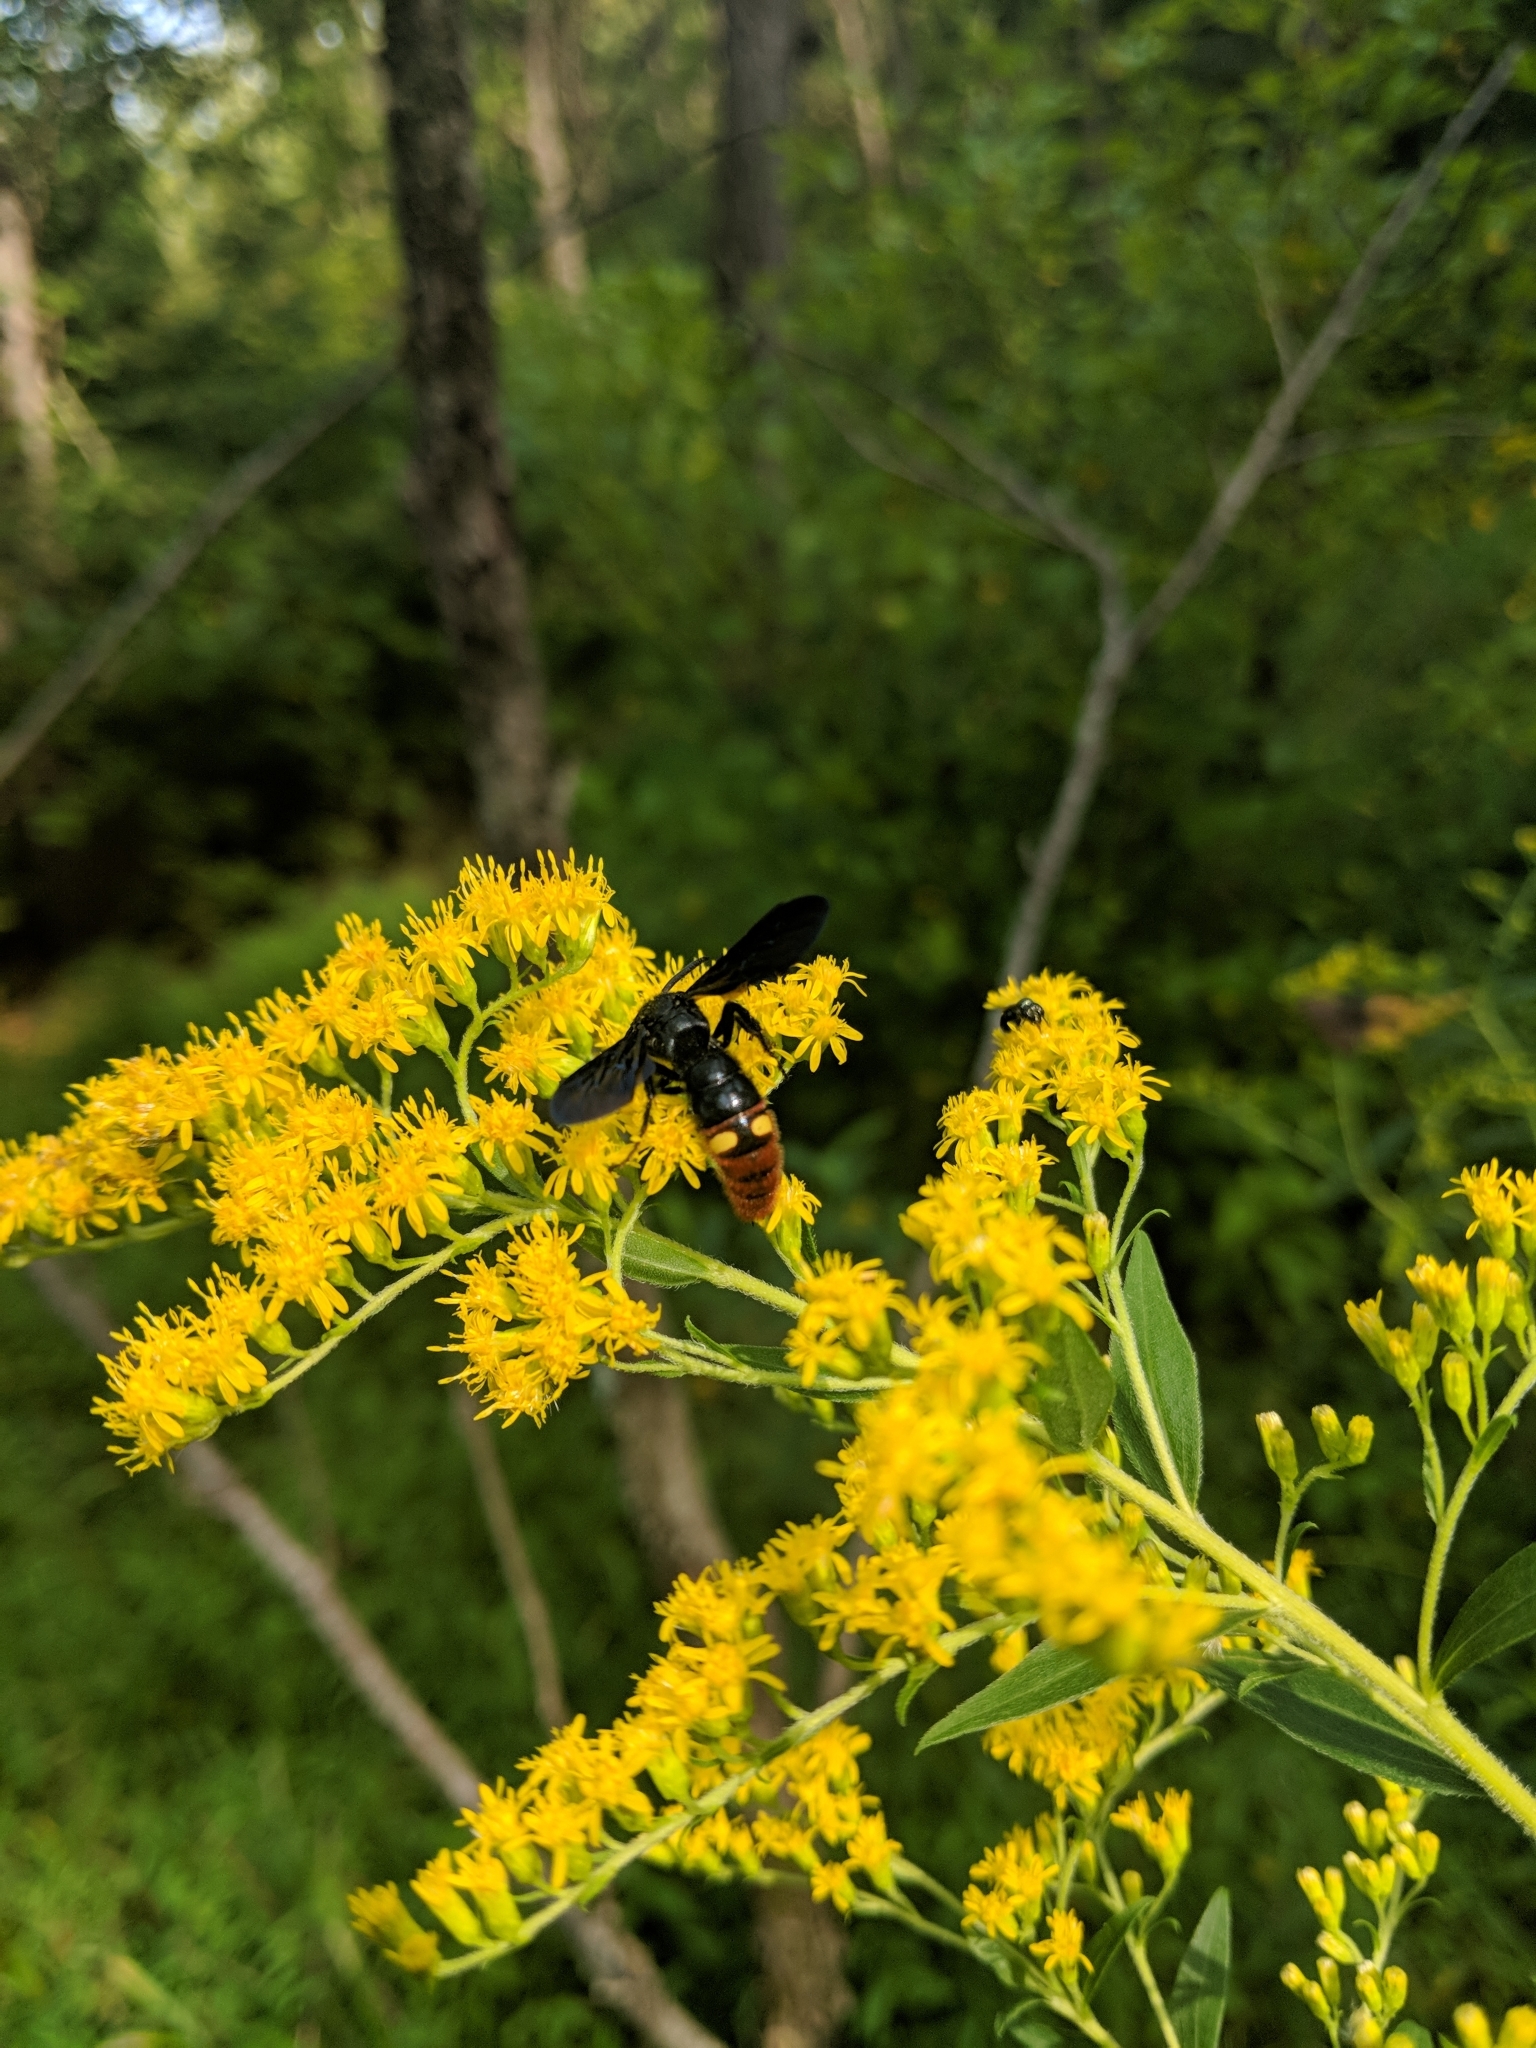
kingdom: Animalia
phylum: Arthropoda
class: Insecta
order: Hymenoptera
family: Scoliidae
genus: Scolia
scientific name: Scolia dubia
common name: Blue-winged scoliid wasp
